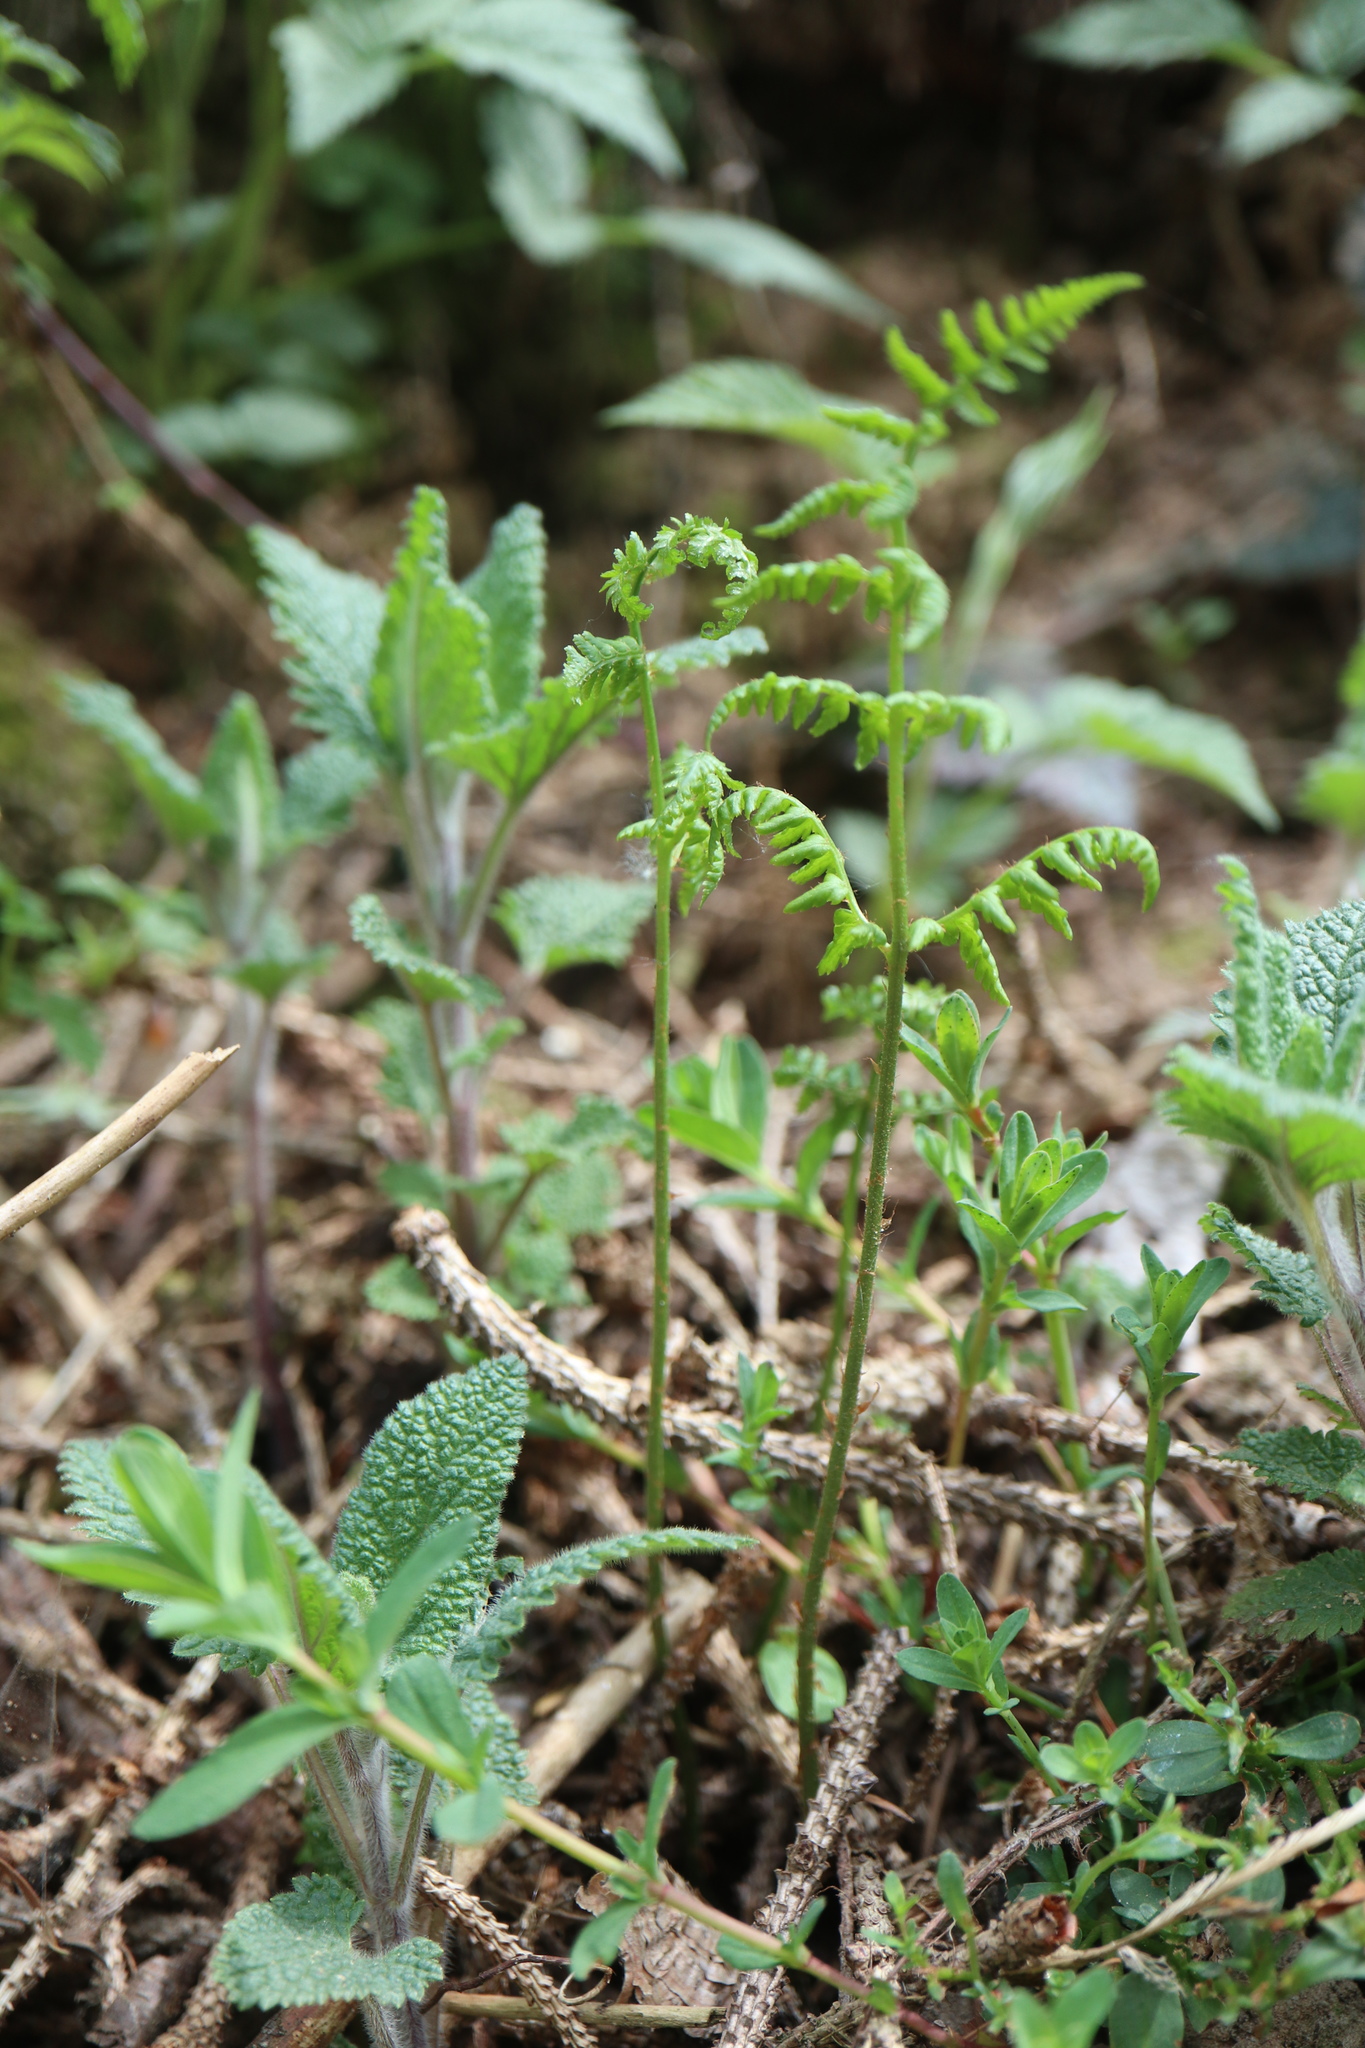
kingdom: Plantae
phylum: Tracheophyta
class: Polypodiopsida
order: Polypodiales
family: Dennstaedtiaceae
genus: Pteridium
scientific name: Pteridium aquilinum
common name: Bracken
